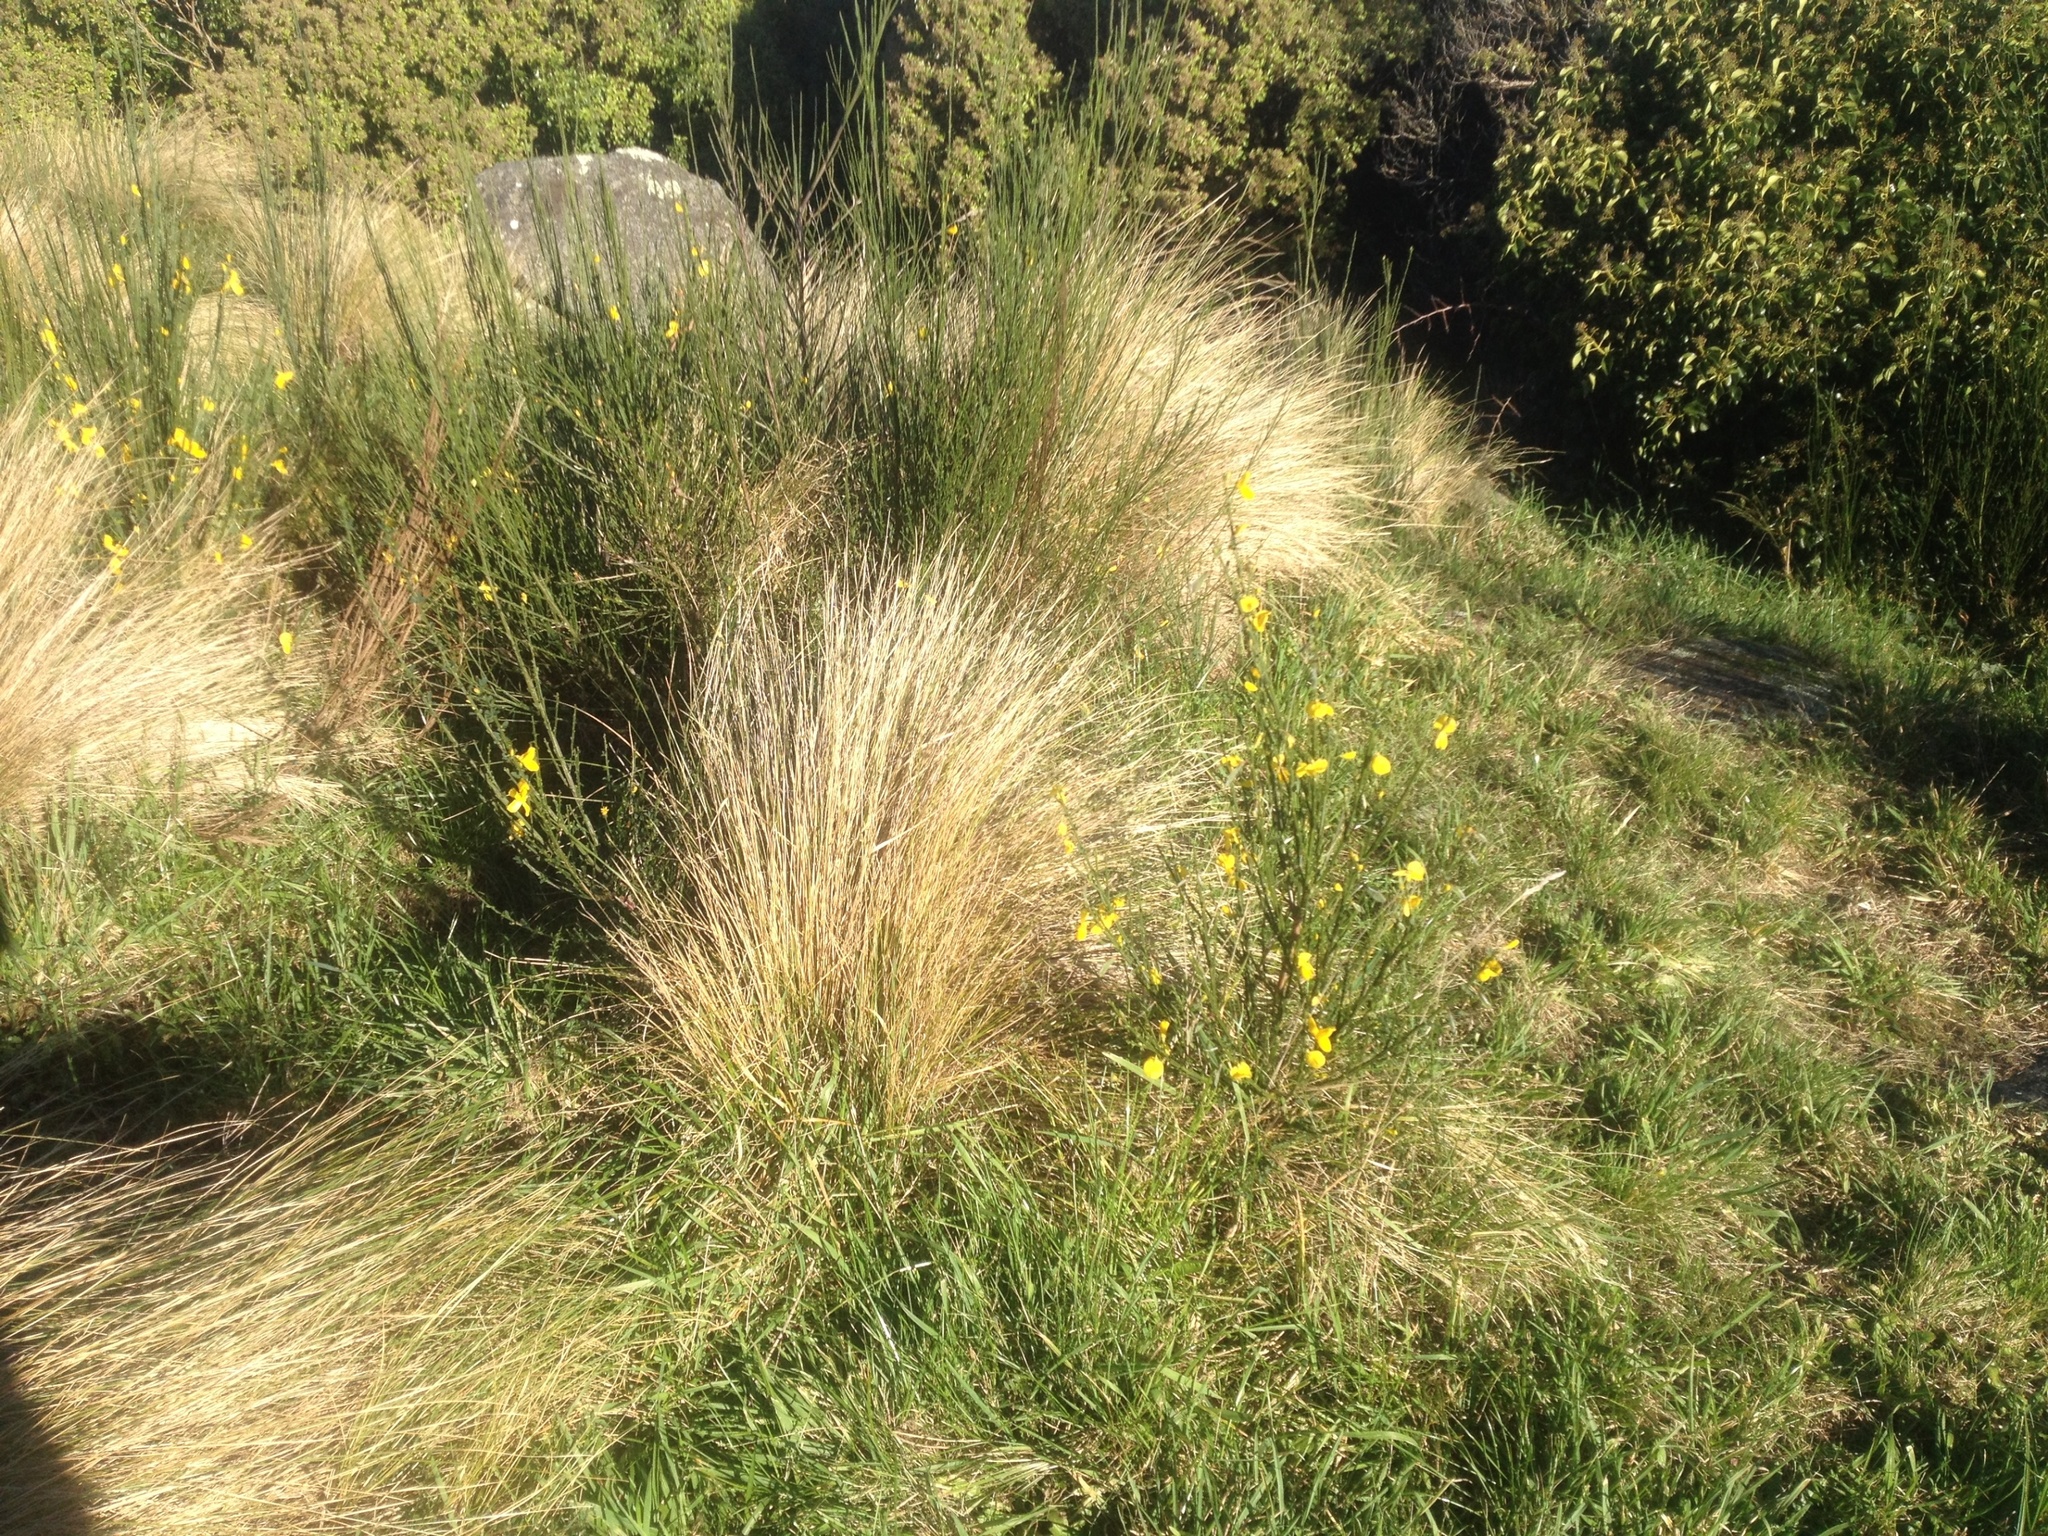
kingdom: Plantae
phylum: Tracheophyta
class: Magnoliopsida
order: Fabales
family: Fabaceae
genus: Cytisus
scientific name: Cytisus scoparius
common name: Scotch broom
